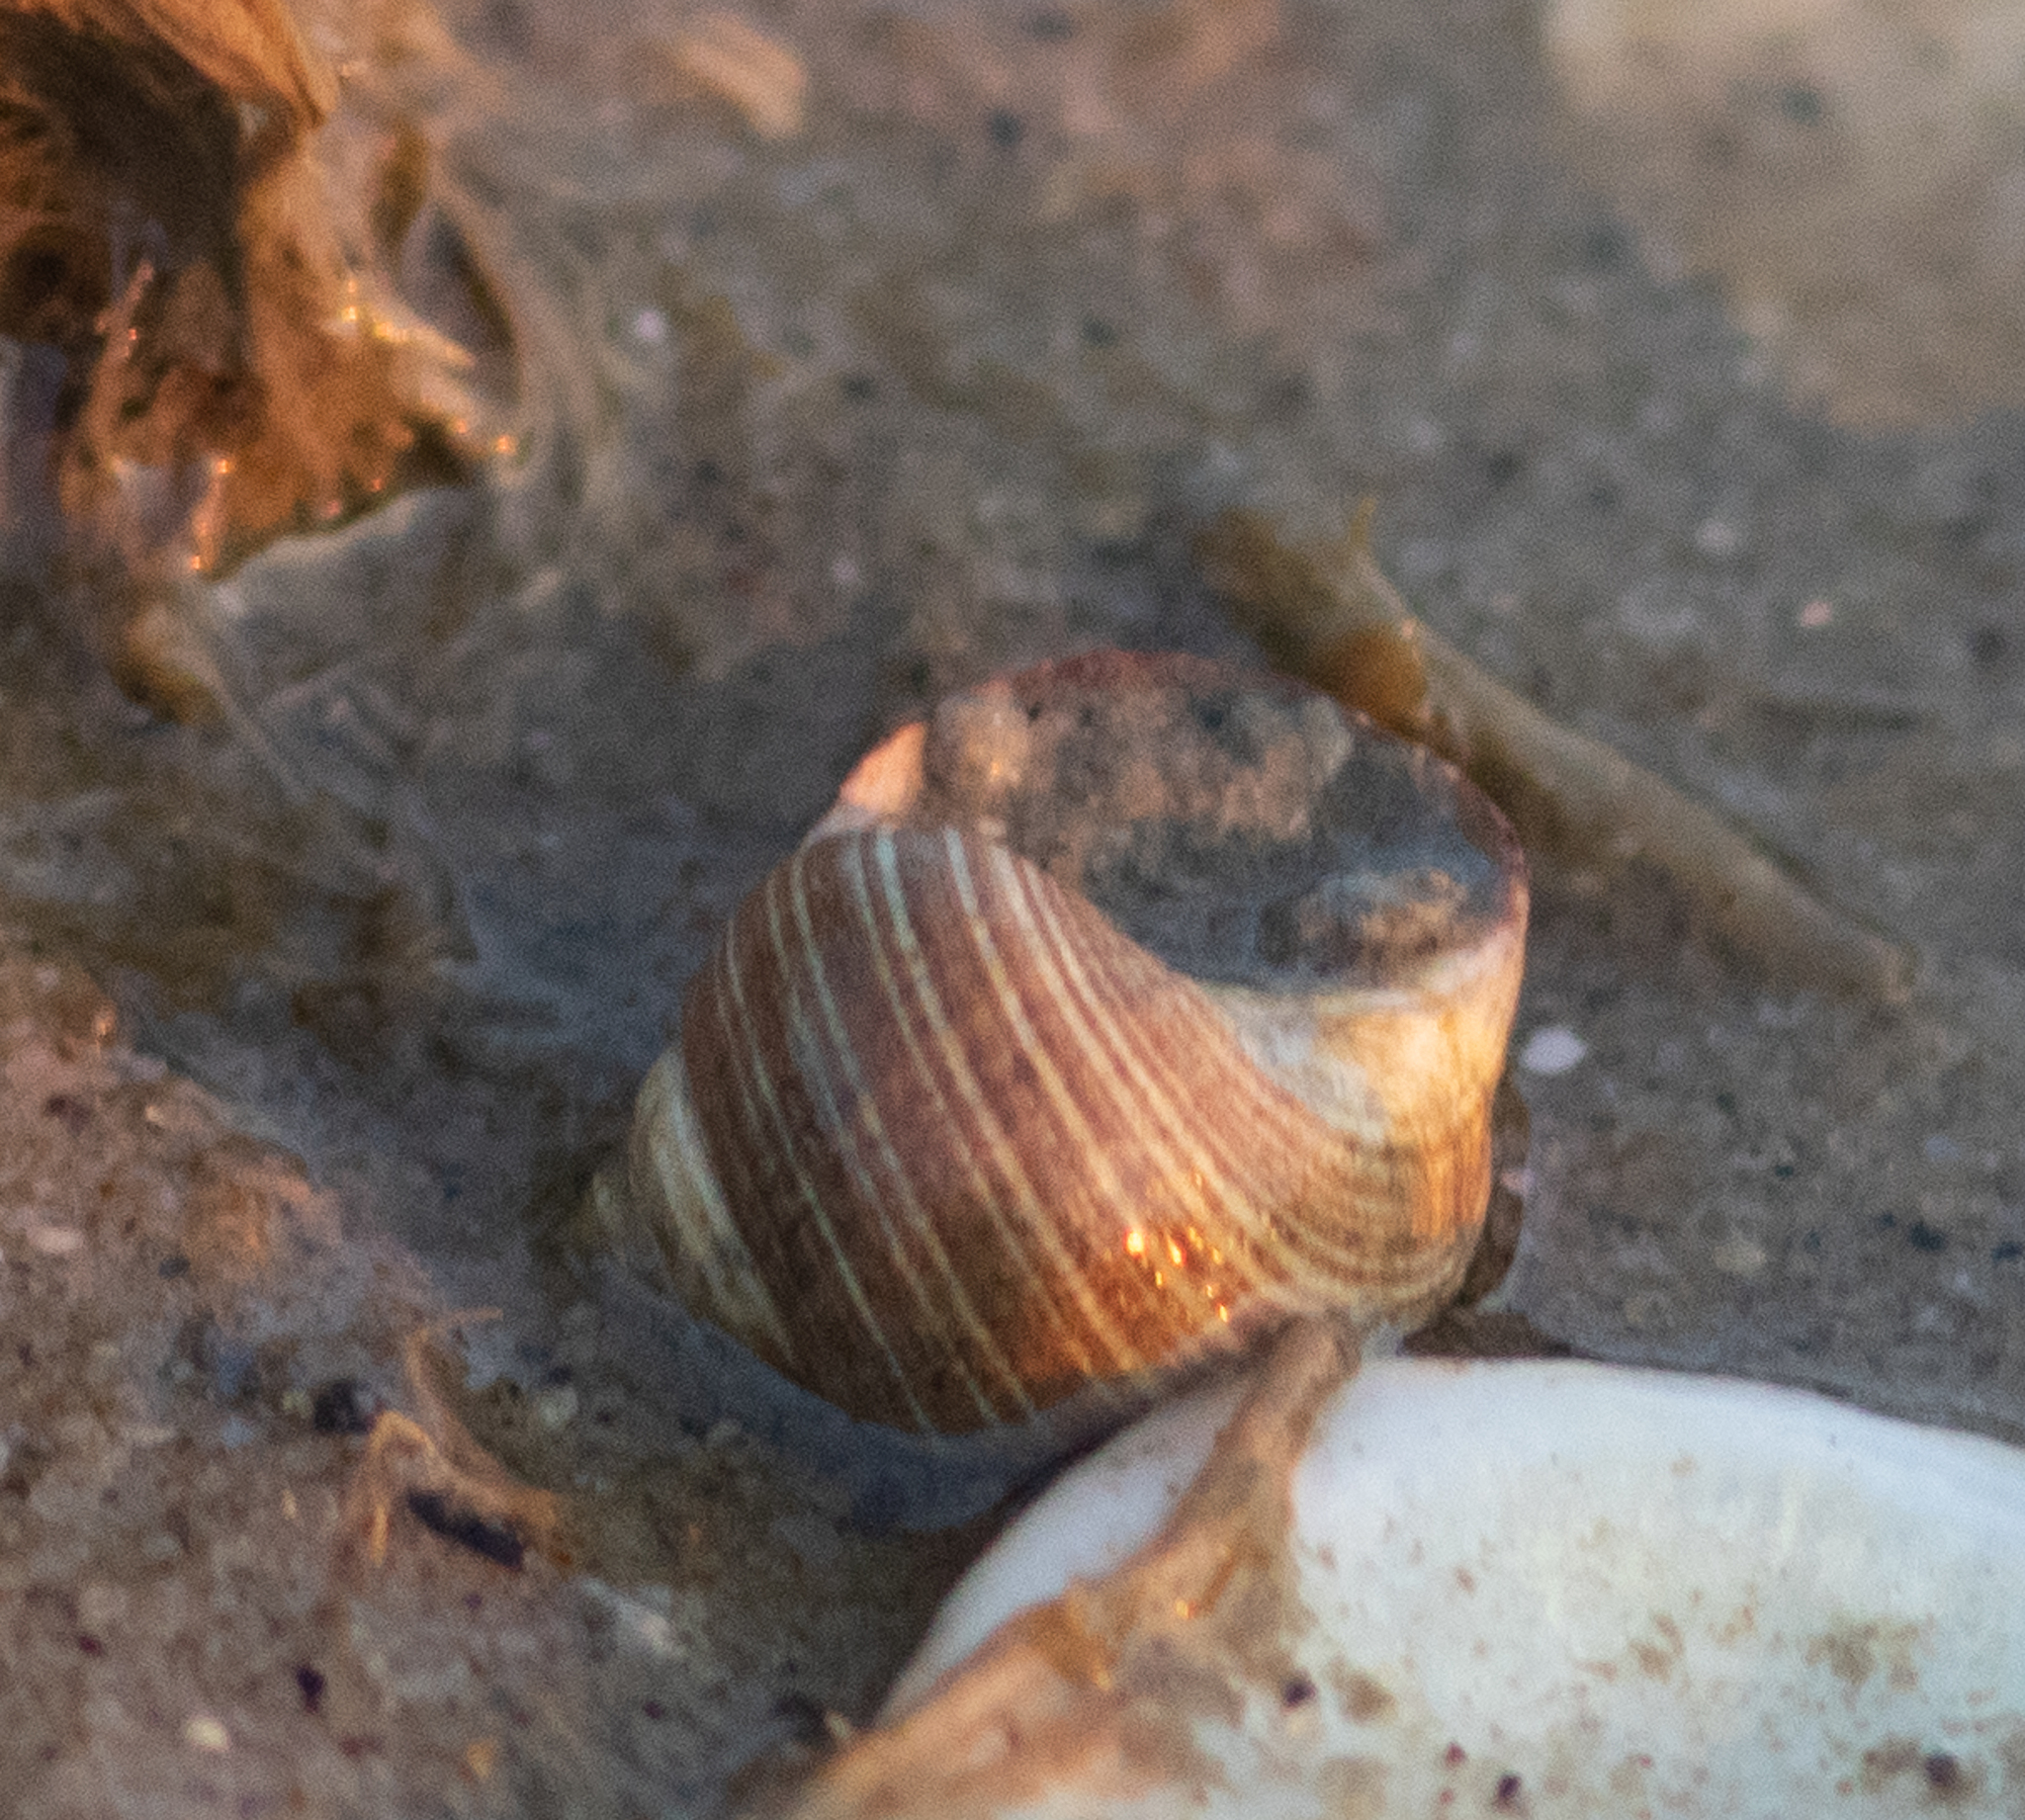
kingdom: Animalia
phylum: Mollusca
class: Gastropoda
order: Littorinimorpha
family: Littorinidae
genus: Littorina
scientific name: Littorina littorea
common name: Common periwinkle
